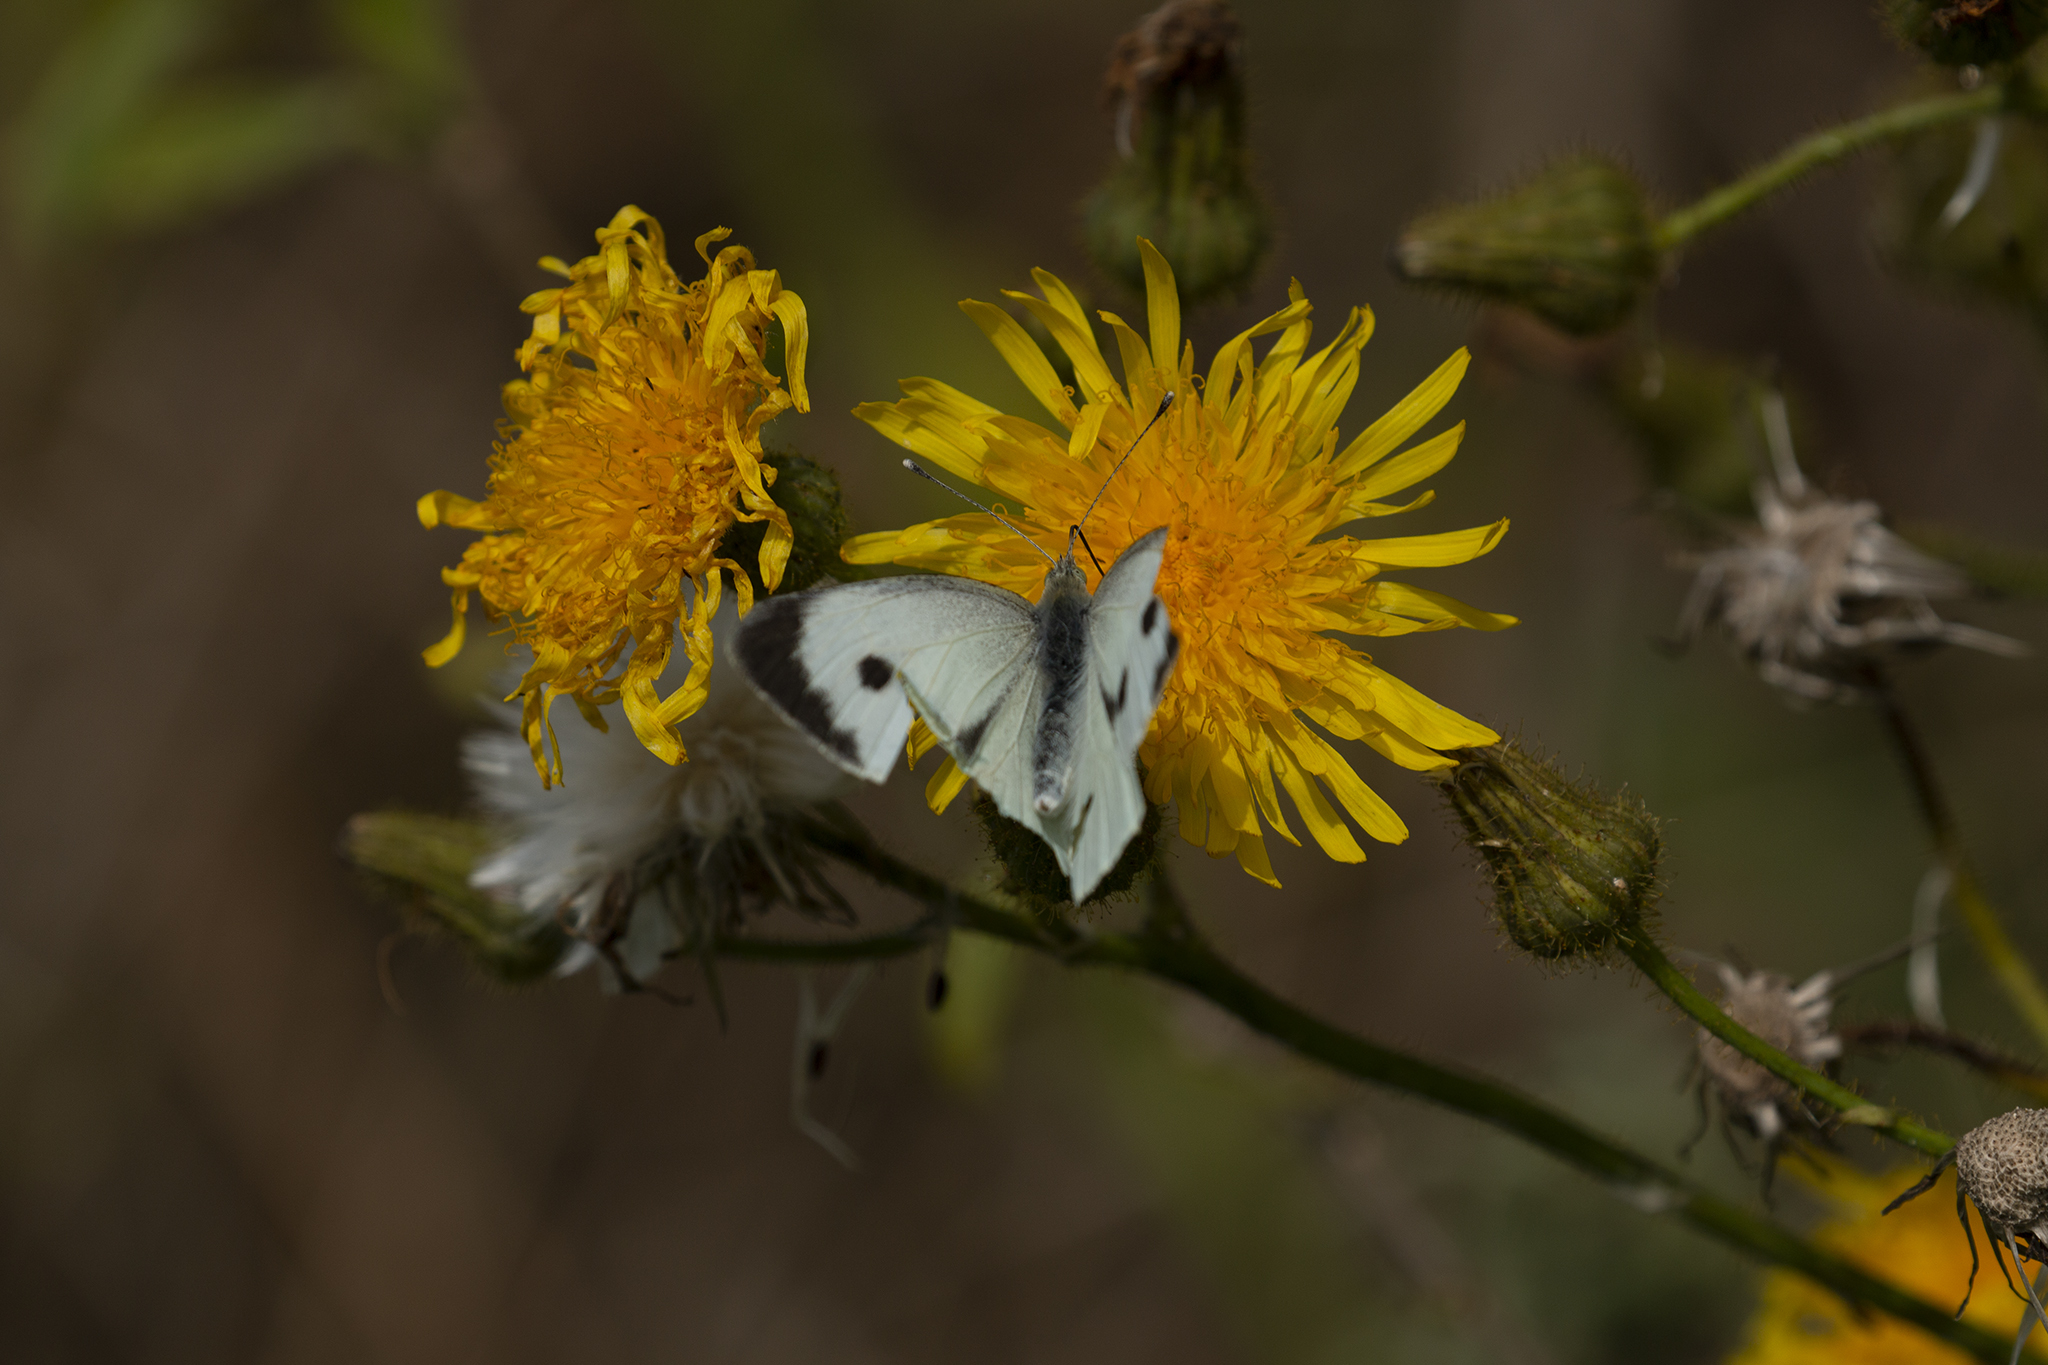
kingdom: Animalia
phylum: Arthropoda
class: Insecta
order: Lepidoptera
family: Pieridae
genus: Pieris
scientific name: Pieris brassicae
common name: Large white
